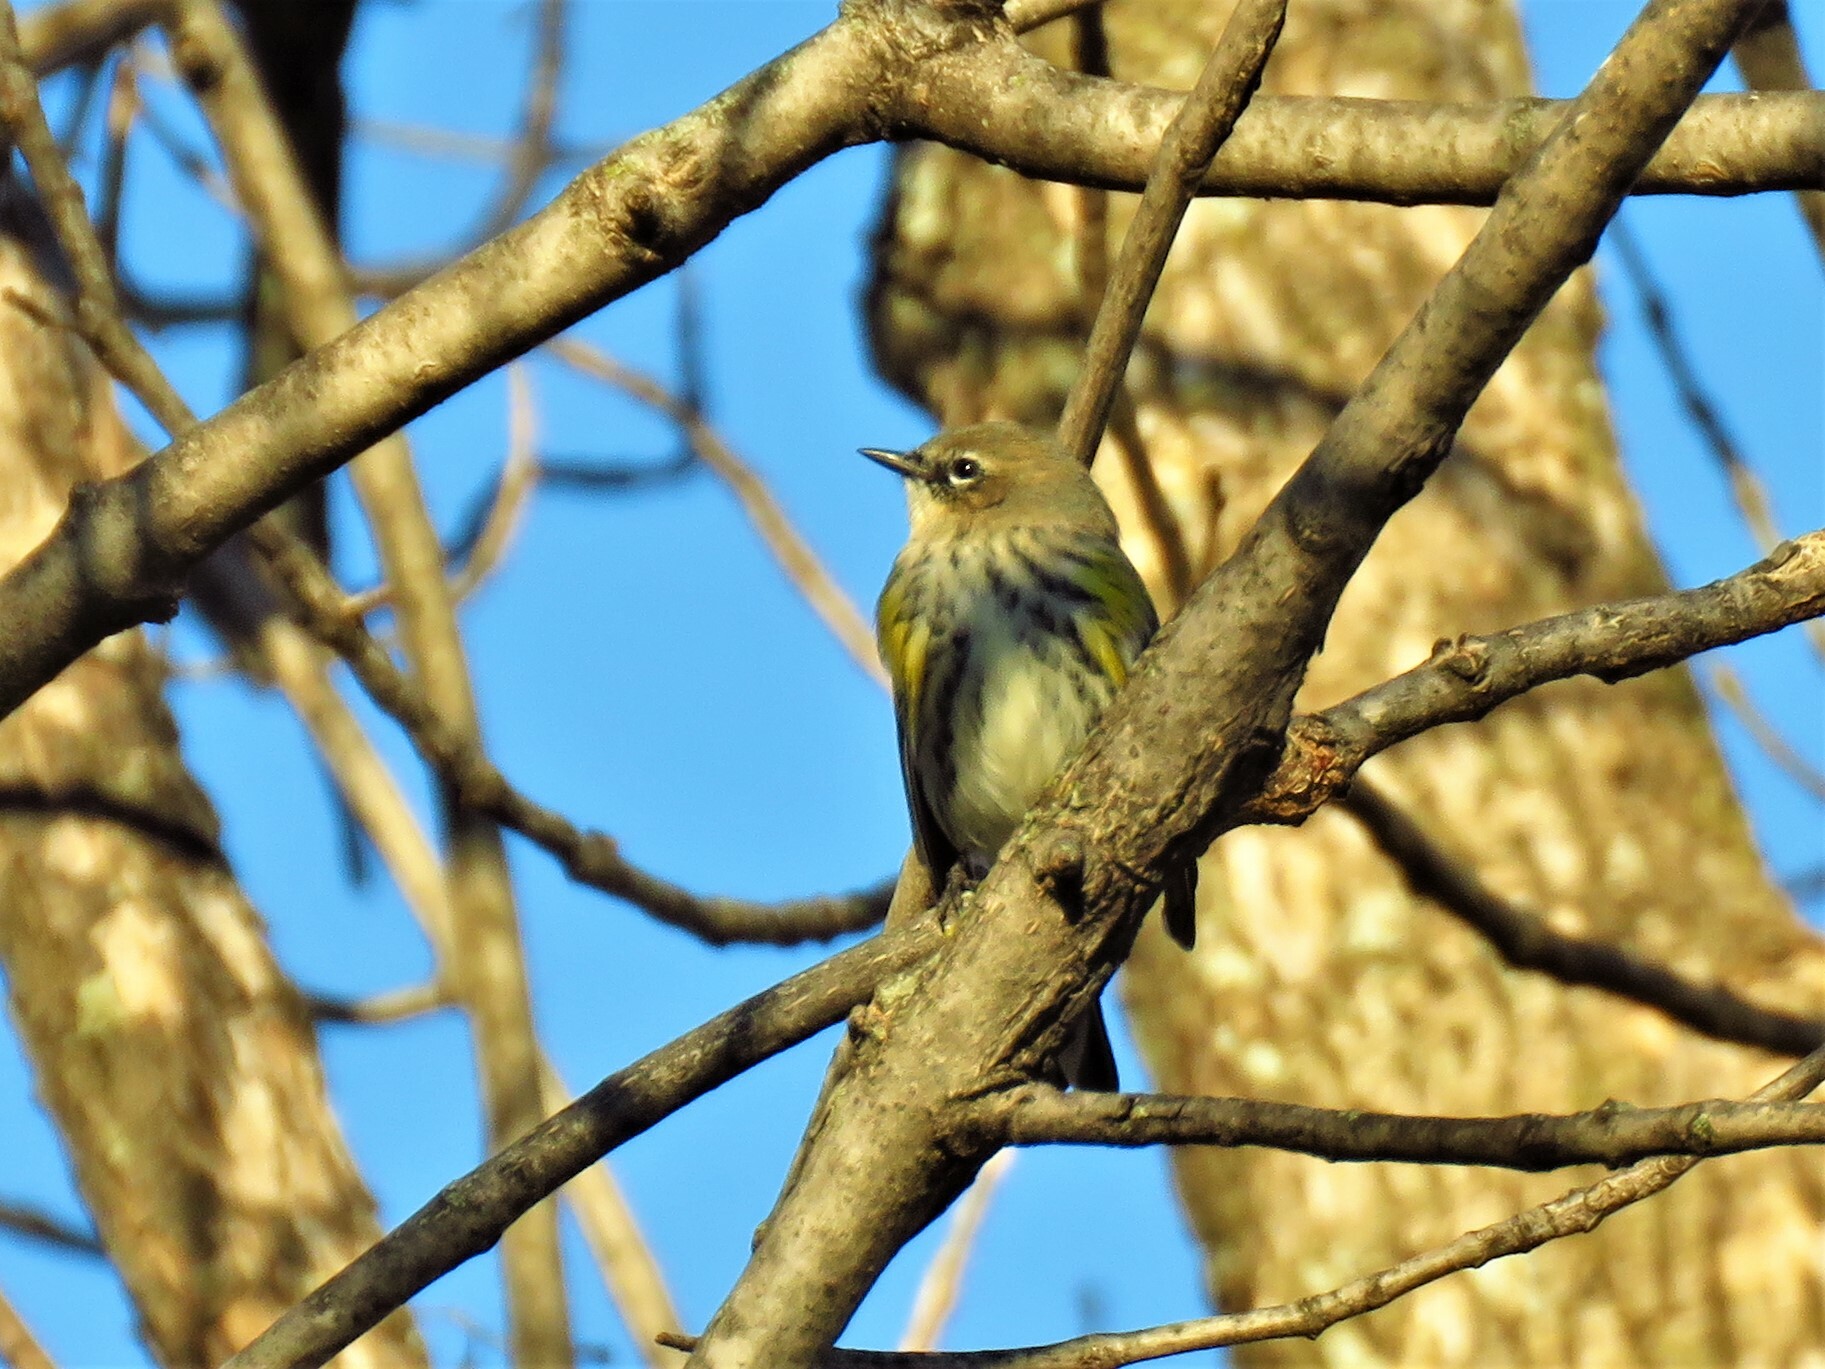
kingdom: Animalia
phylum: Chordata
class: Aves
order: Passeriformes
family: Parulidae
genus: Setophaga
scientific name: Setophaga coronata
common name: Myrtle warbler
